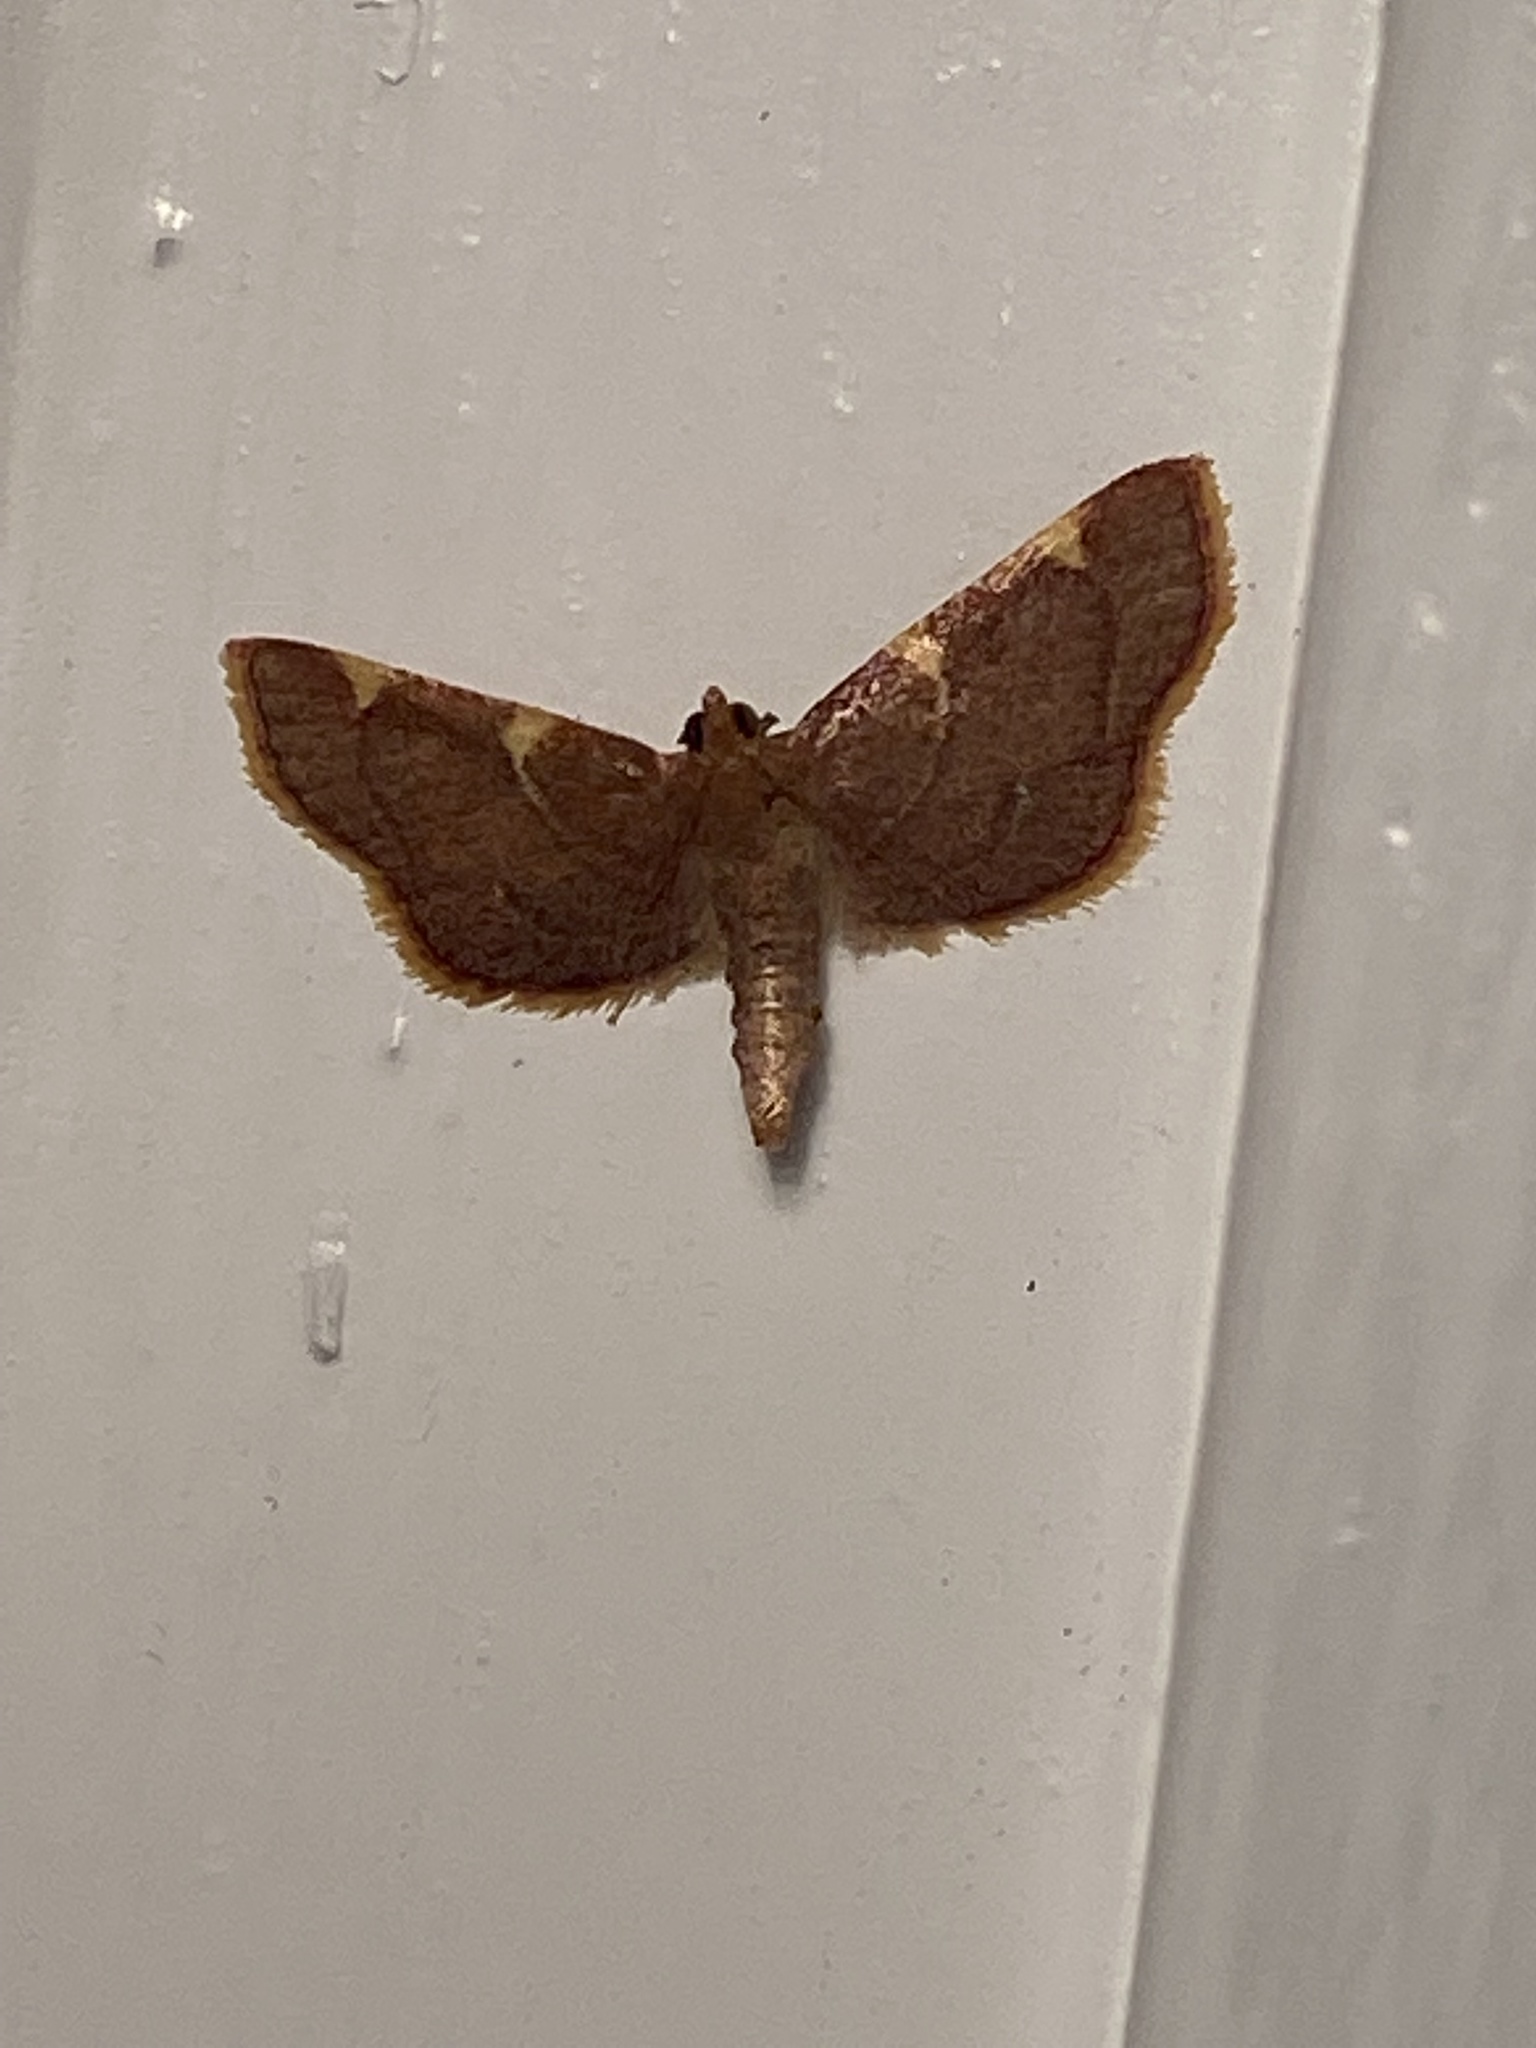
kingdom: Animalia
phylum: Arthropoda
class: Insecta
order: Lepidoptera
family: Pyralidae
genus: Hypsopygia
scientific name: Hypsopygia olinalis
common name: Yellow-fringed dolichomia moth
